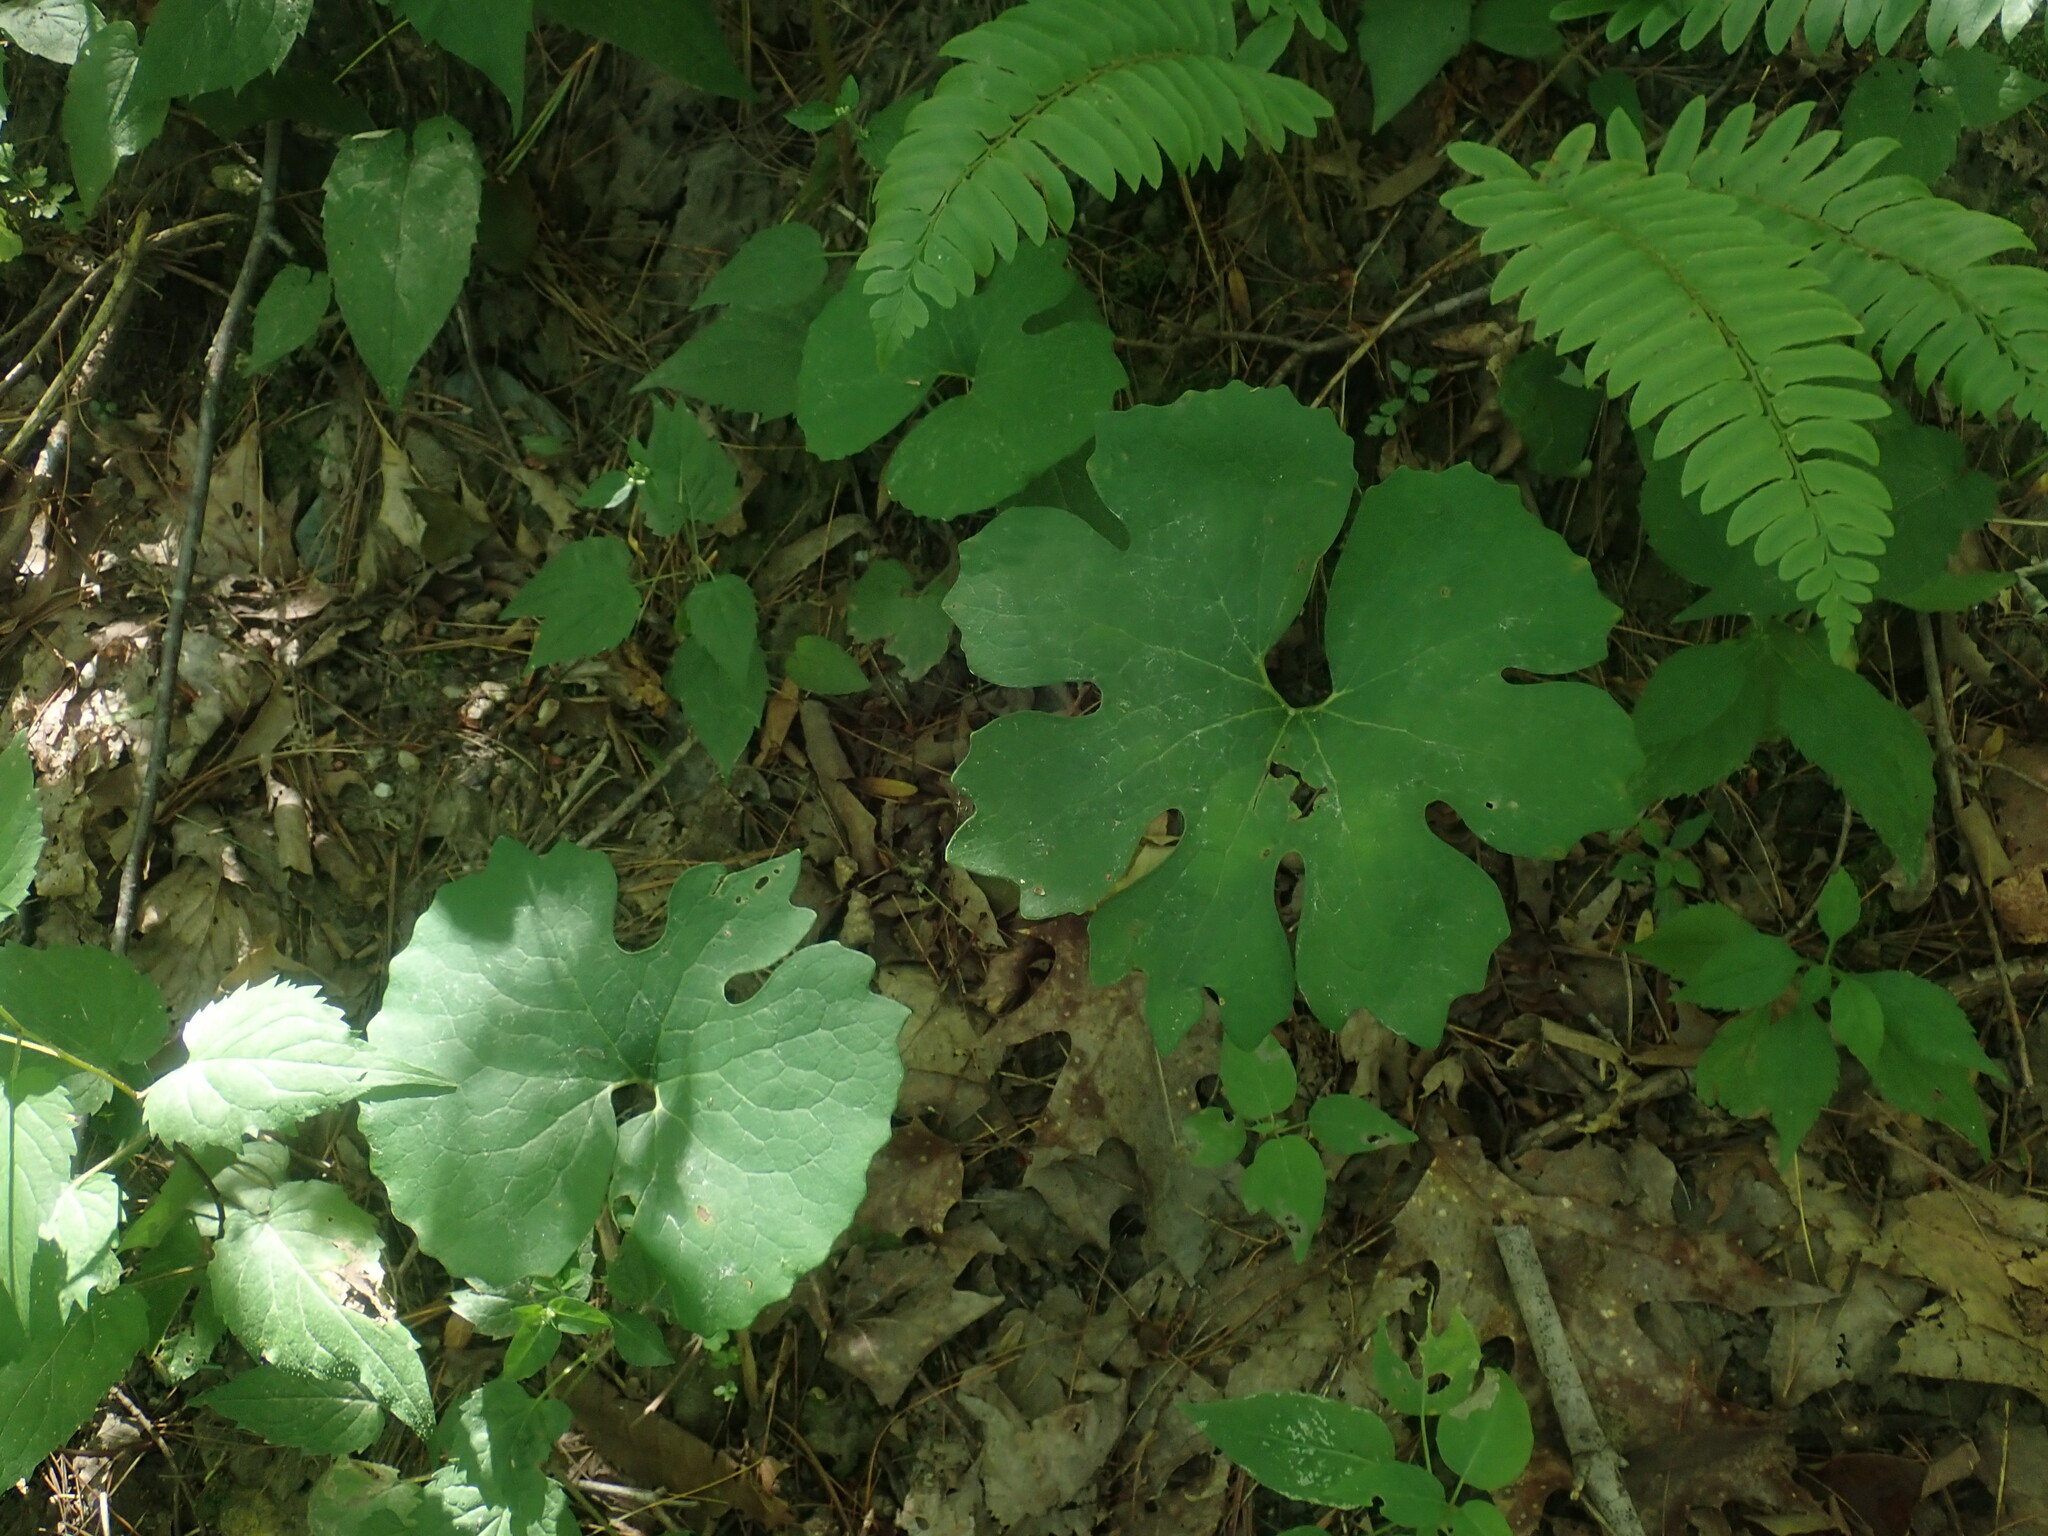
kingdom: Plantae
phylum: Tracheophyta
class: Magnoliopsida
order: Ranunculales
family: Papaveraceae
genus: Sanguinaria
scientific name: Sanguinaria canadensis
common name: Bloodroot
